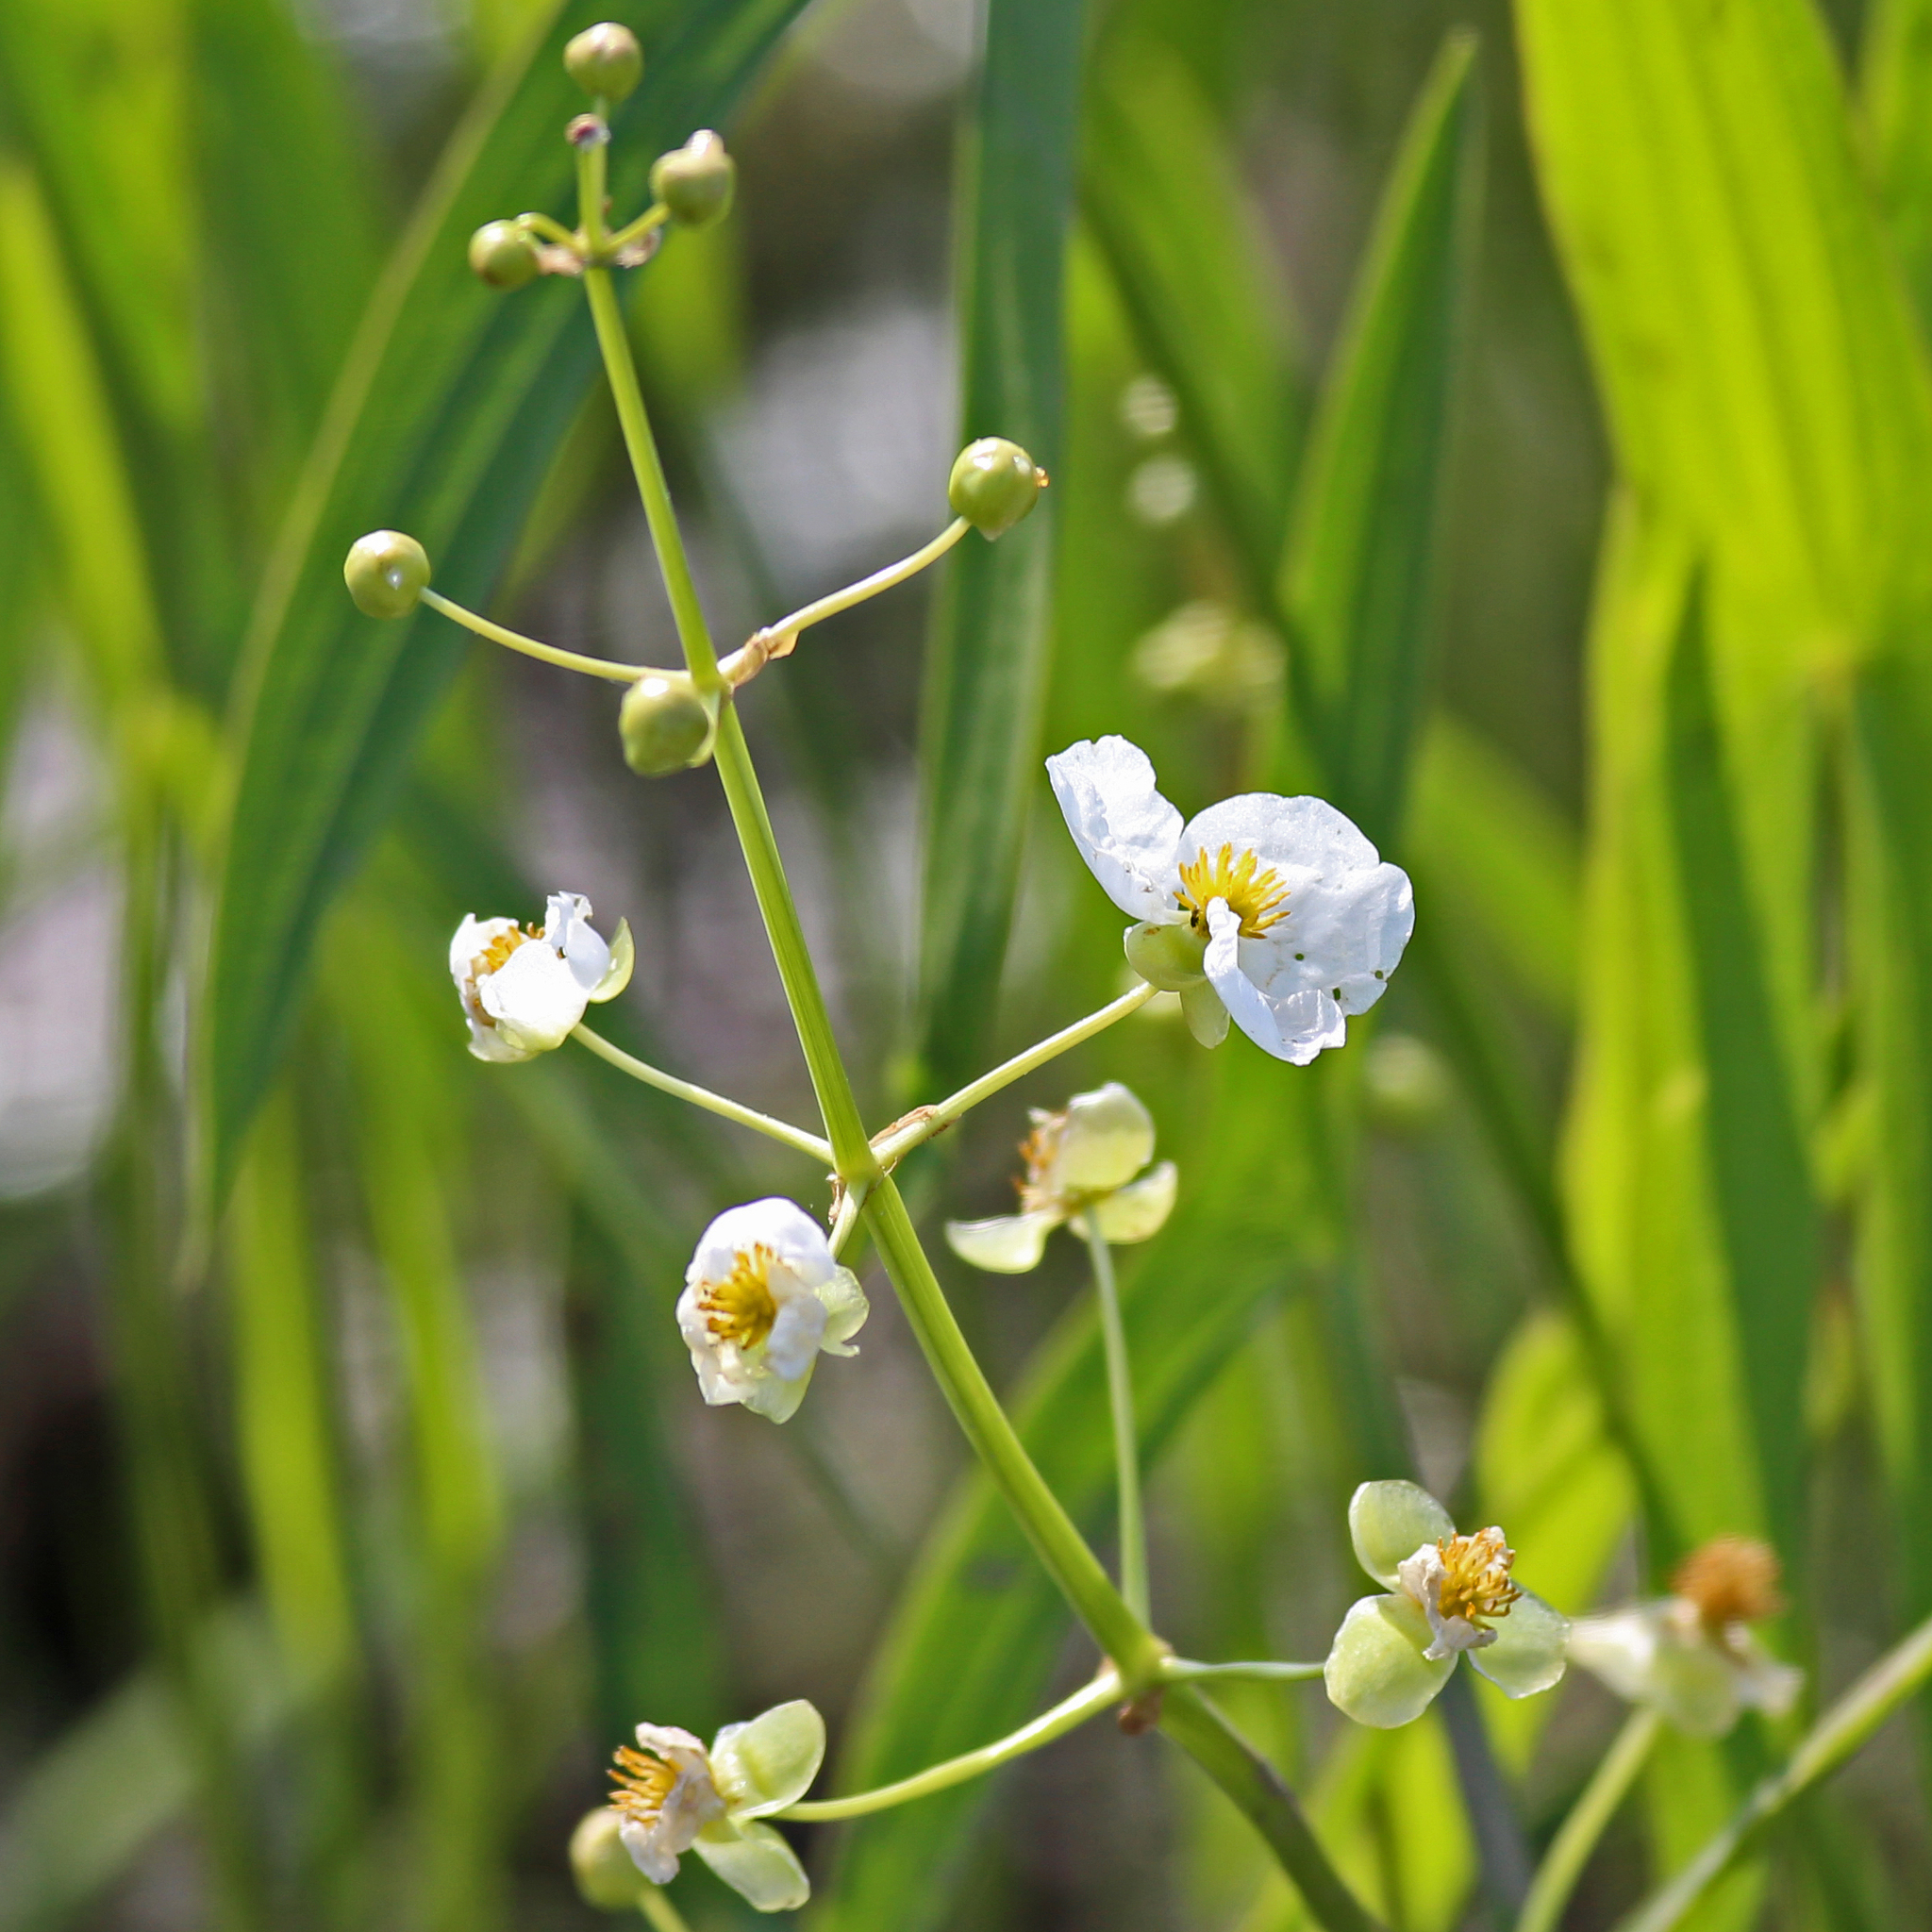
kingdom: Plantae
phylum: Tracheophyta
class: Liliopsida
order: Alismatales
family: Alismataceae
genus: Sagittaria
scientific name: Sagittaria latifolia
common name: Duck-potato
